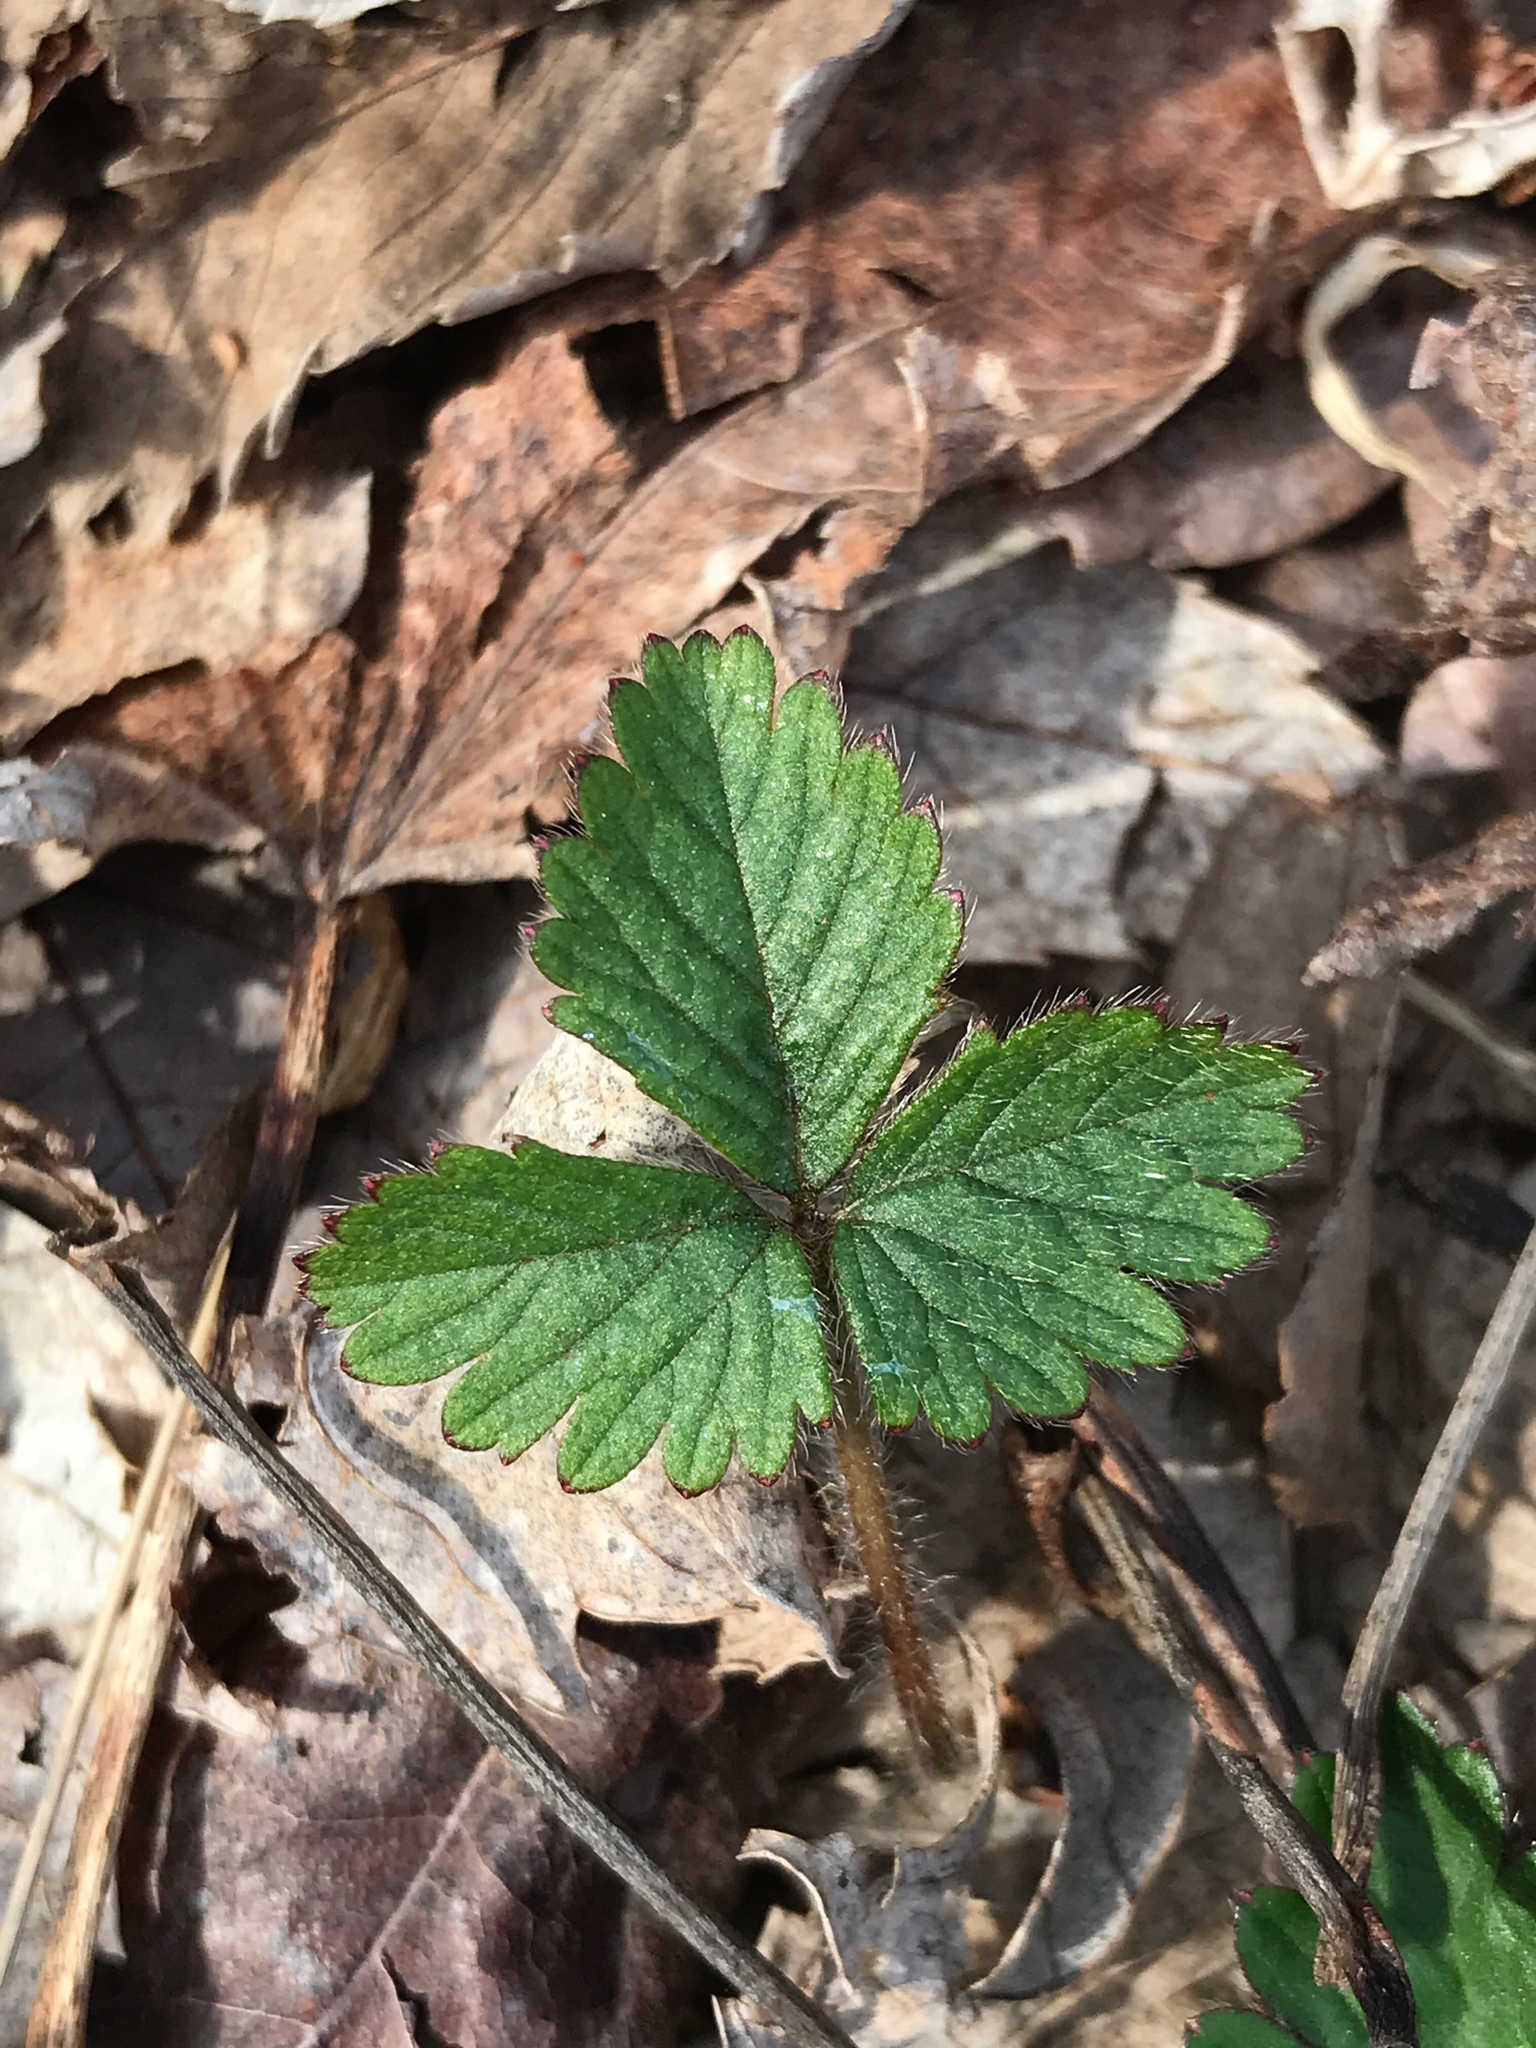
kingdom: Plantae
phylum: Tracheophyta
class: Magnoliopsida
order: Rosales
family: Rosaceae
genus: Potentilla
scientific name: Potentilla indica
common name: Yellow-flowered strawberry
